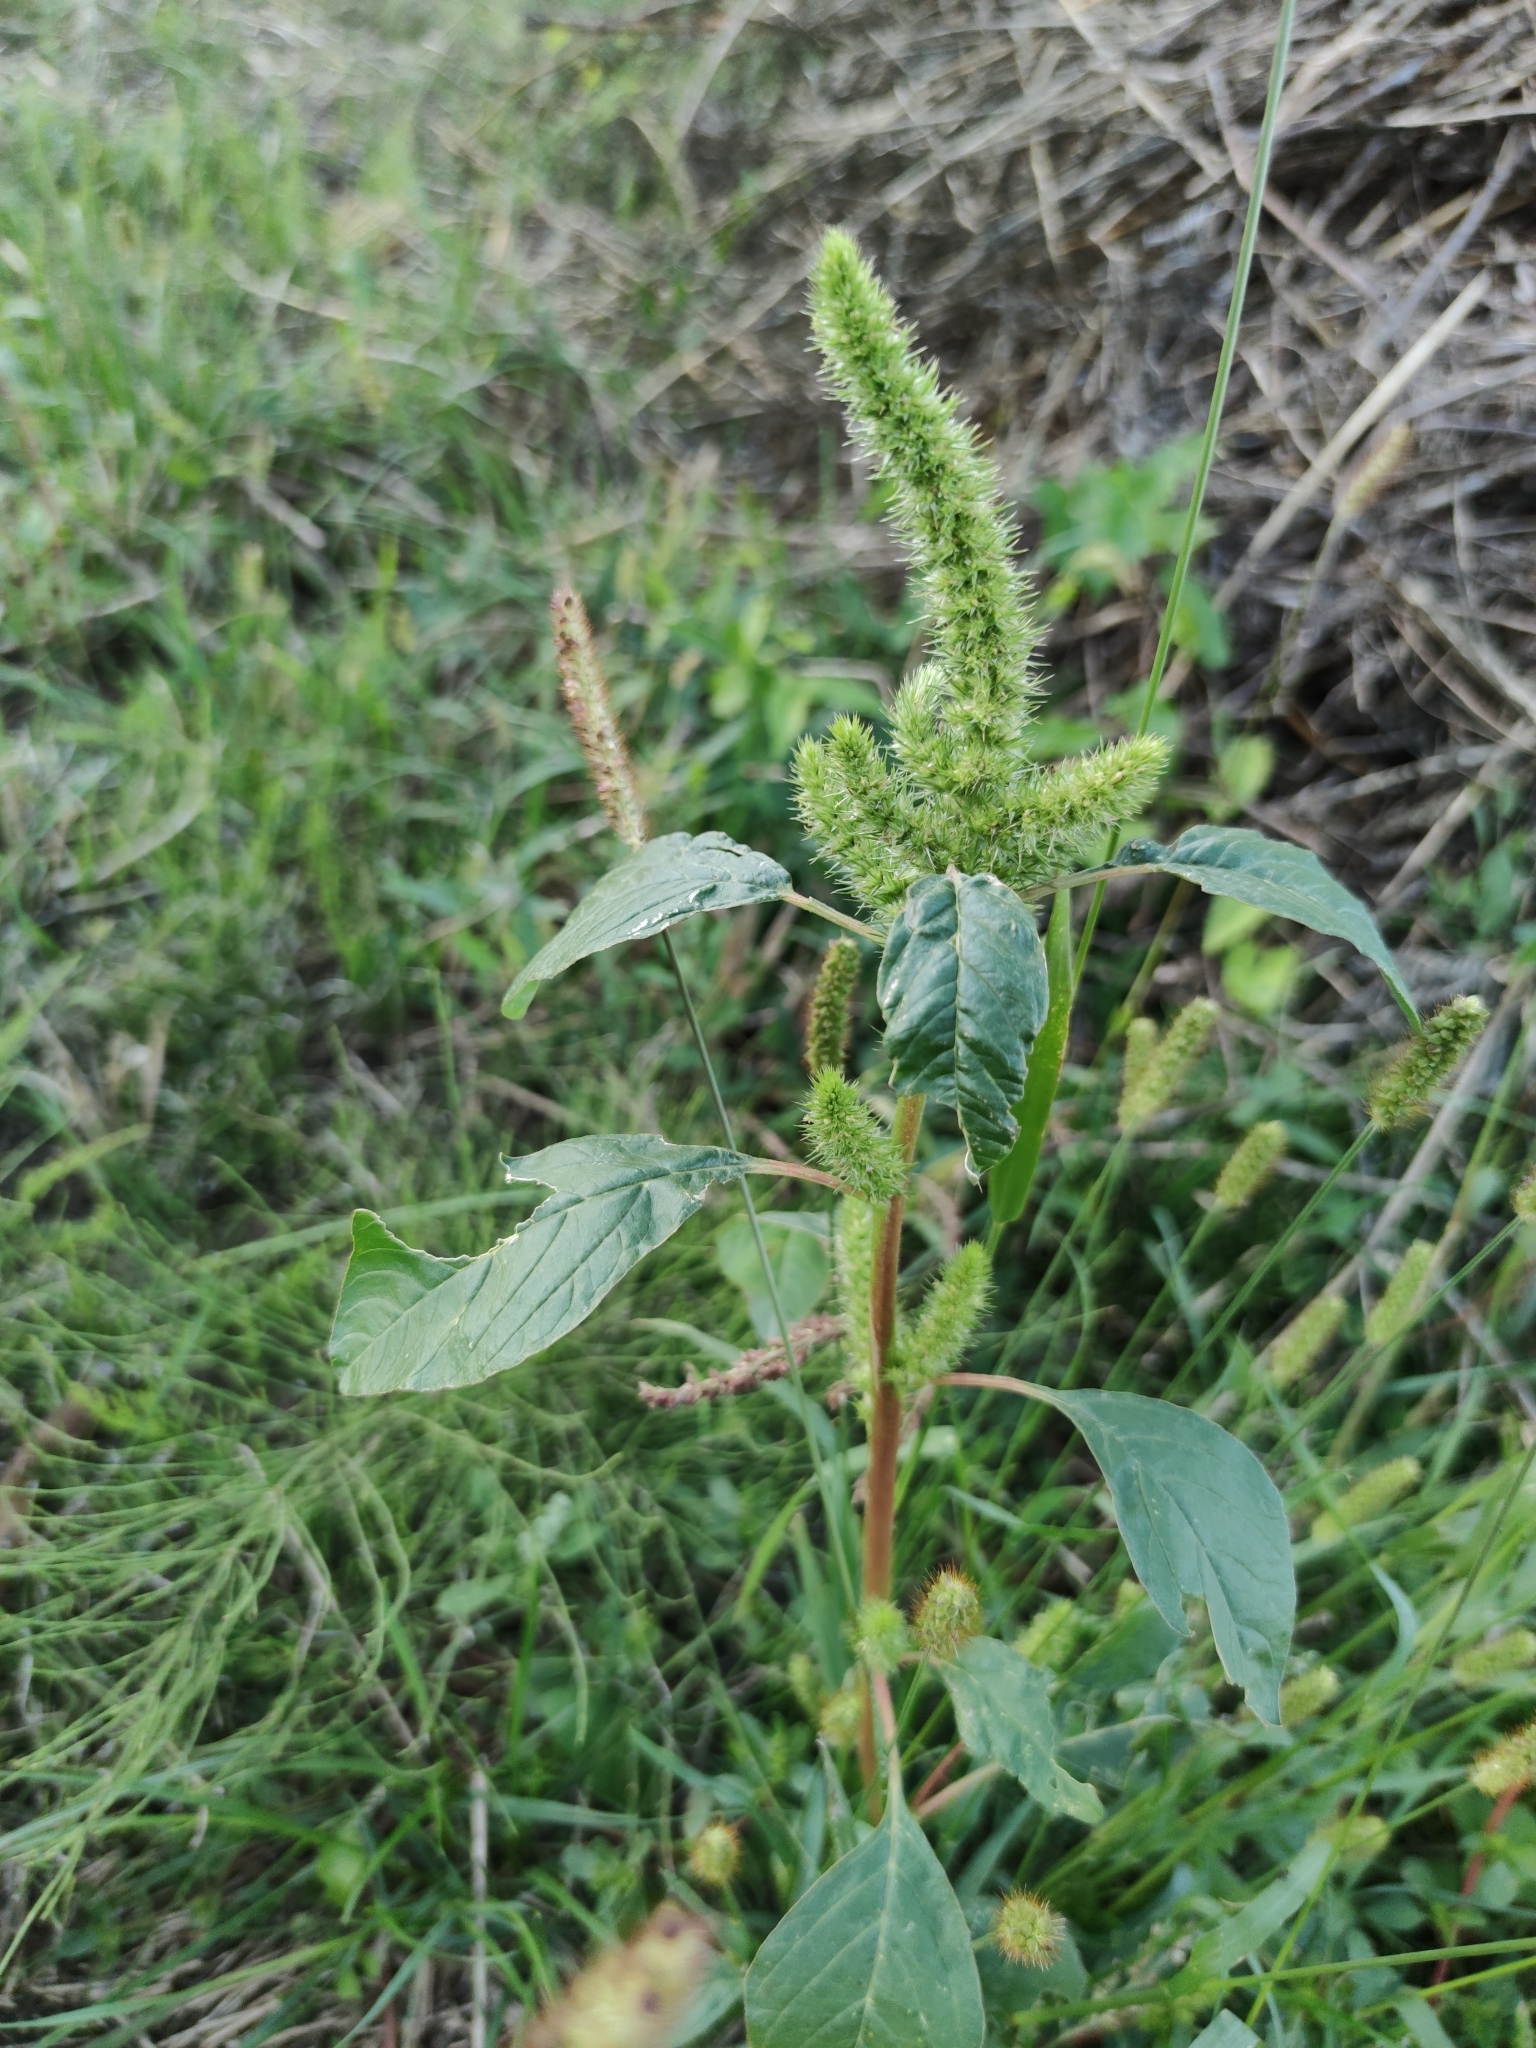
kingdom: Plantae
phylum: Tracheophyta
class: Magnoliopsida
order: Caryophyllales
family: Amaranthaceae
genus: Amaranthus
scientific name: Amaranthus retroflexus
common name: Redroot amaranth
